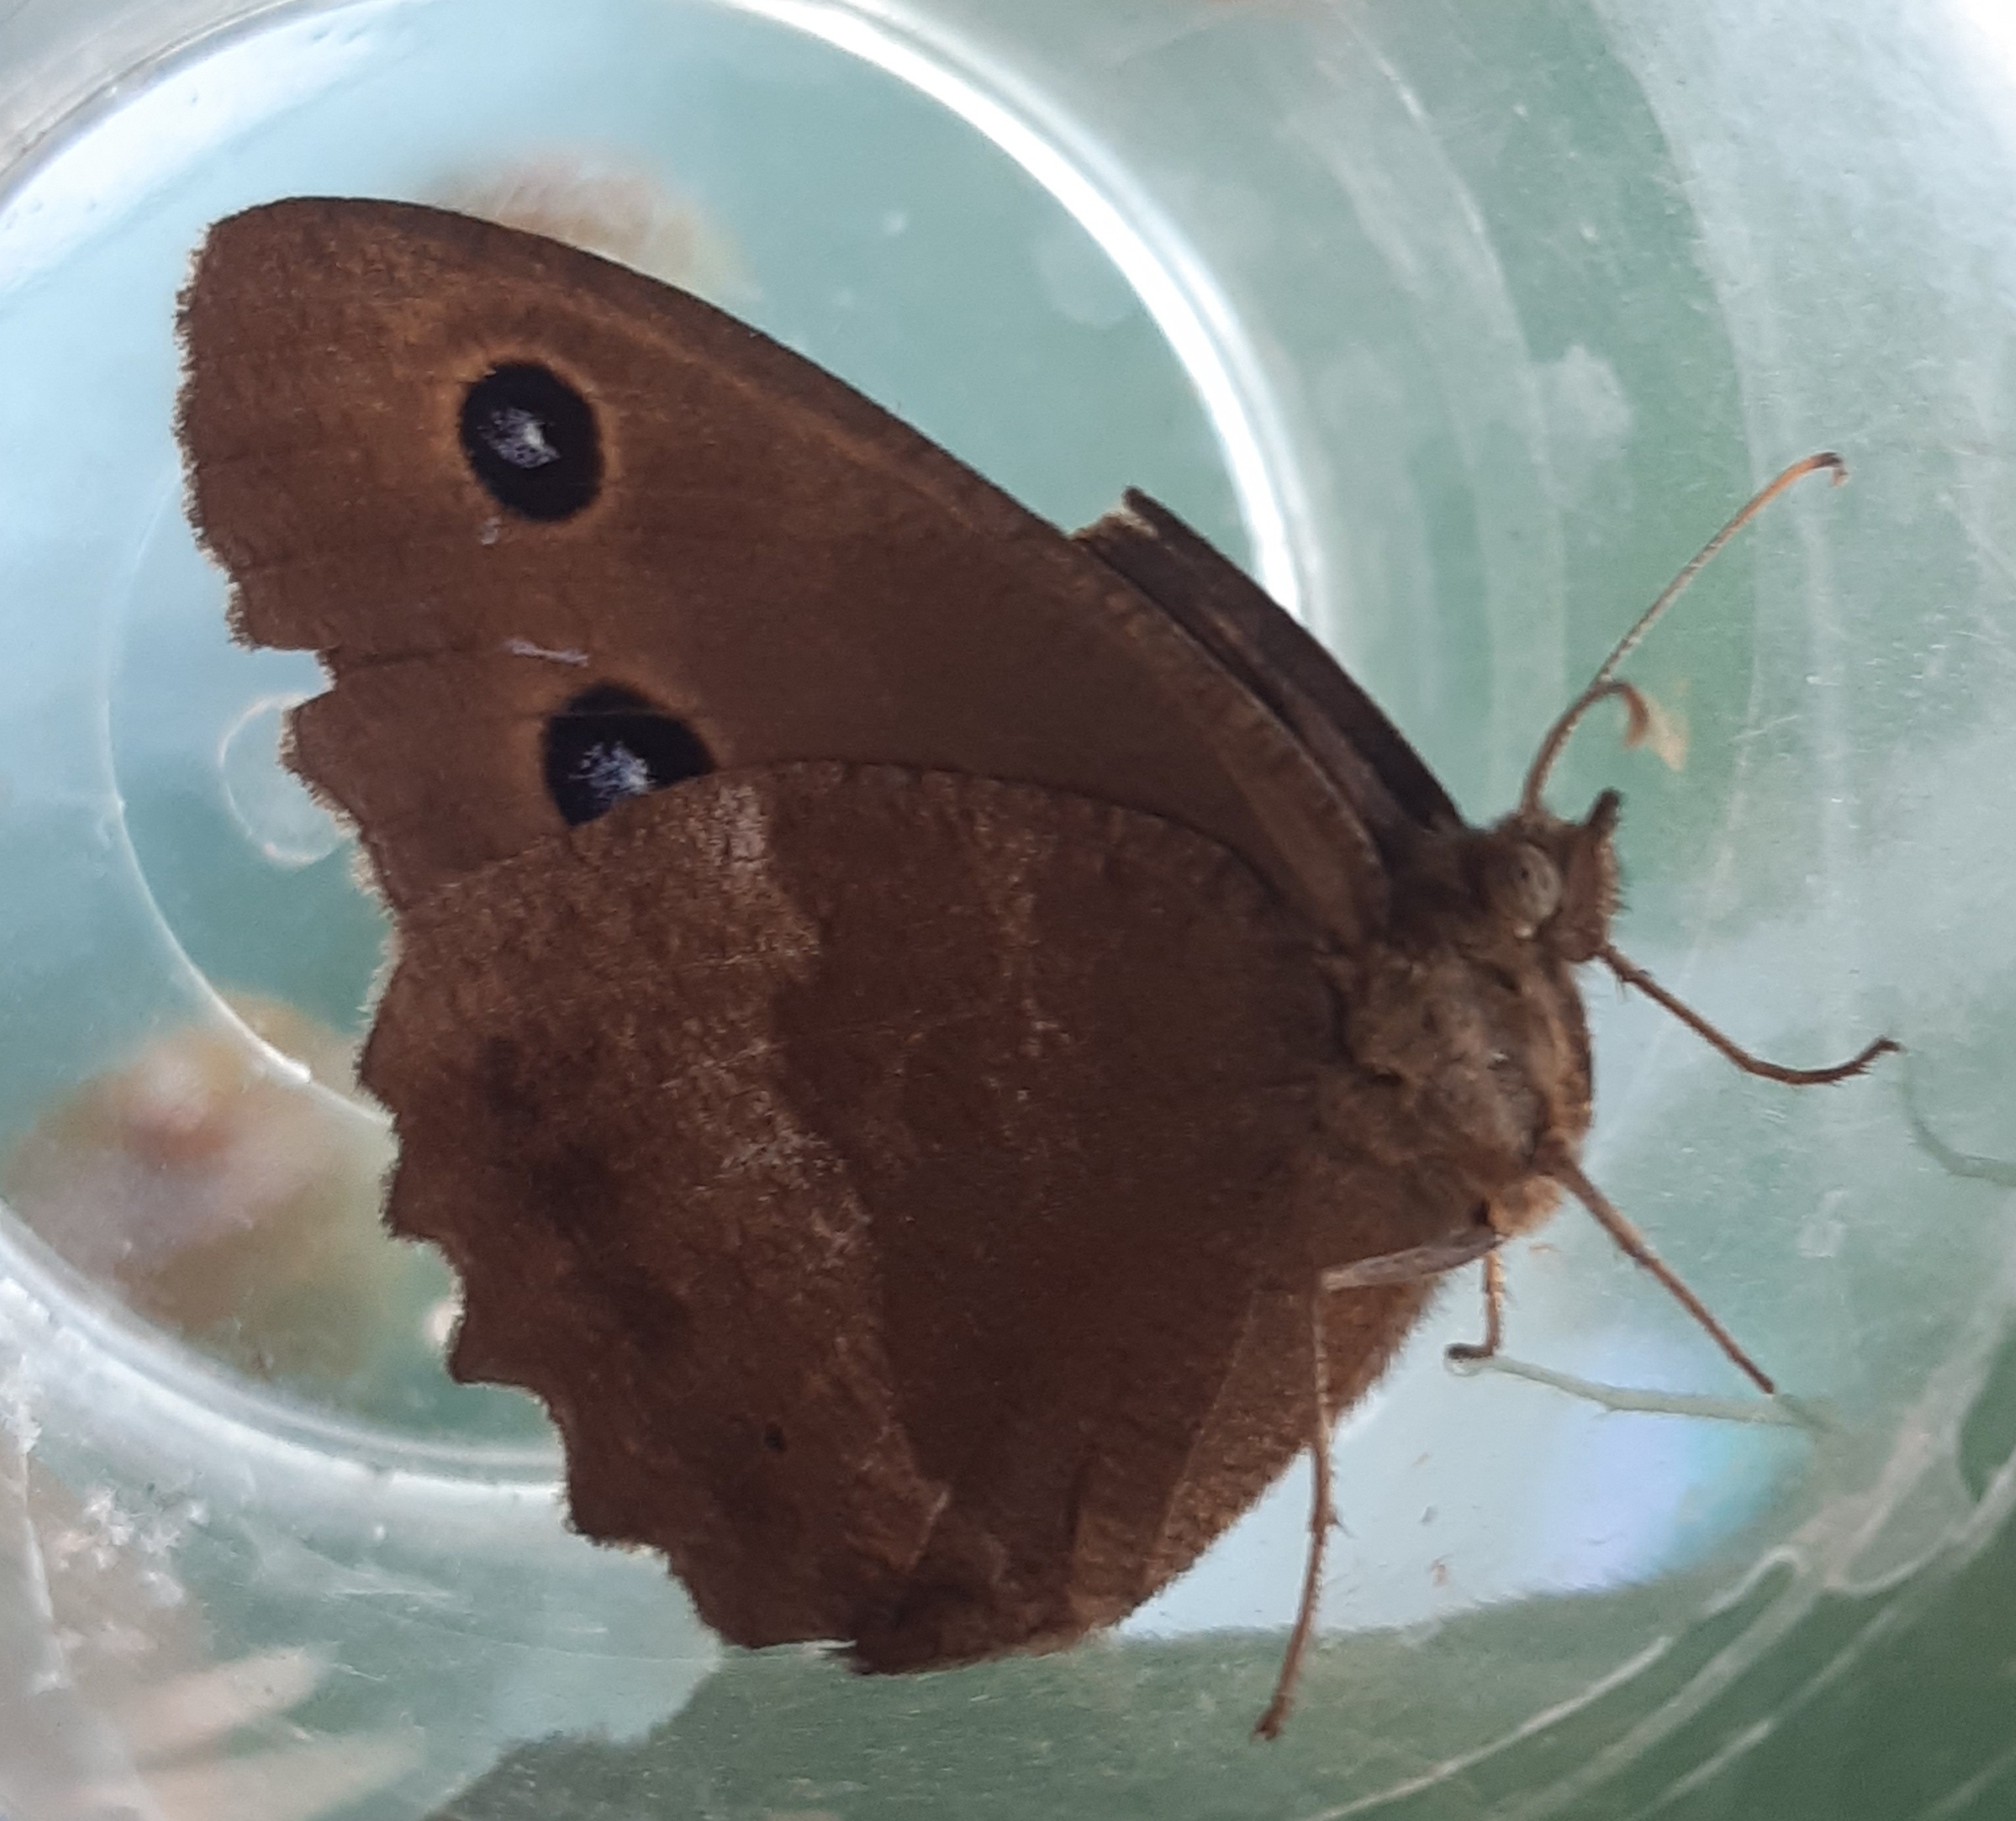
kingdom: Animalia
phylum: Arthropoda
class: Insecta
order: Lepidoptera
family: Nymphalidae
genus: Minois
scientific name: Minois dryas
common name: Dryad
